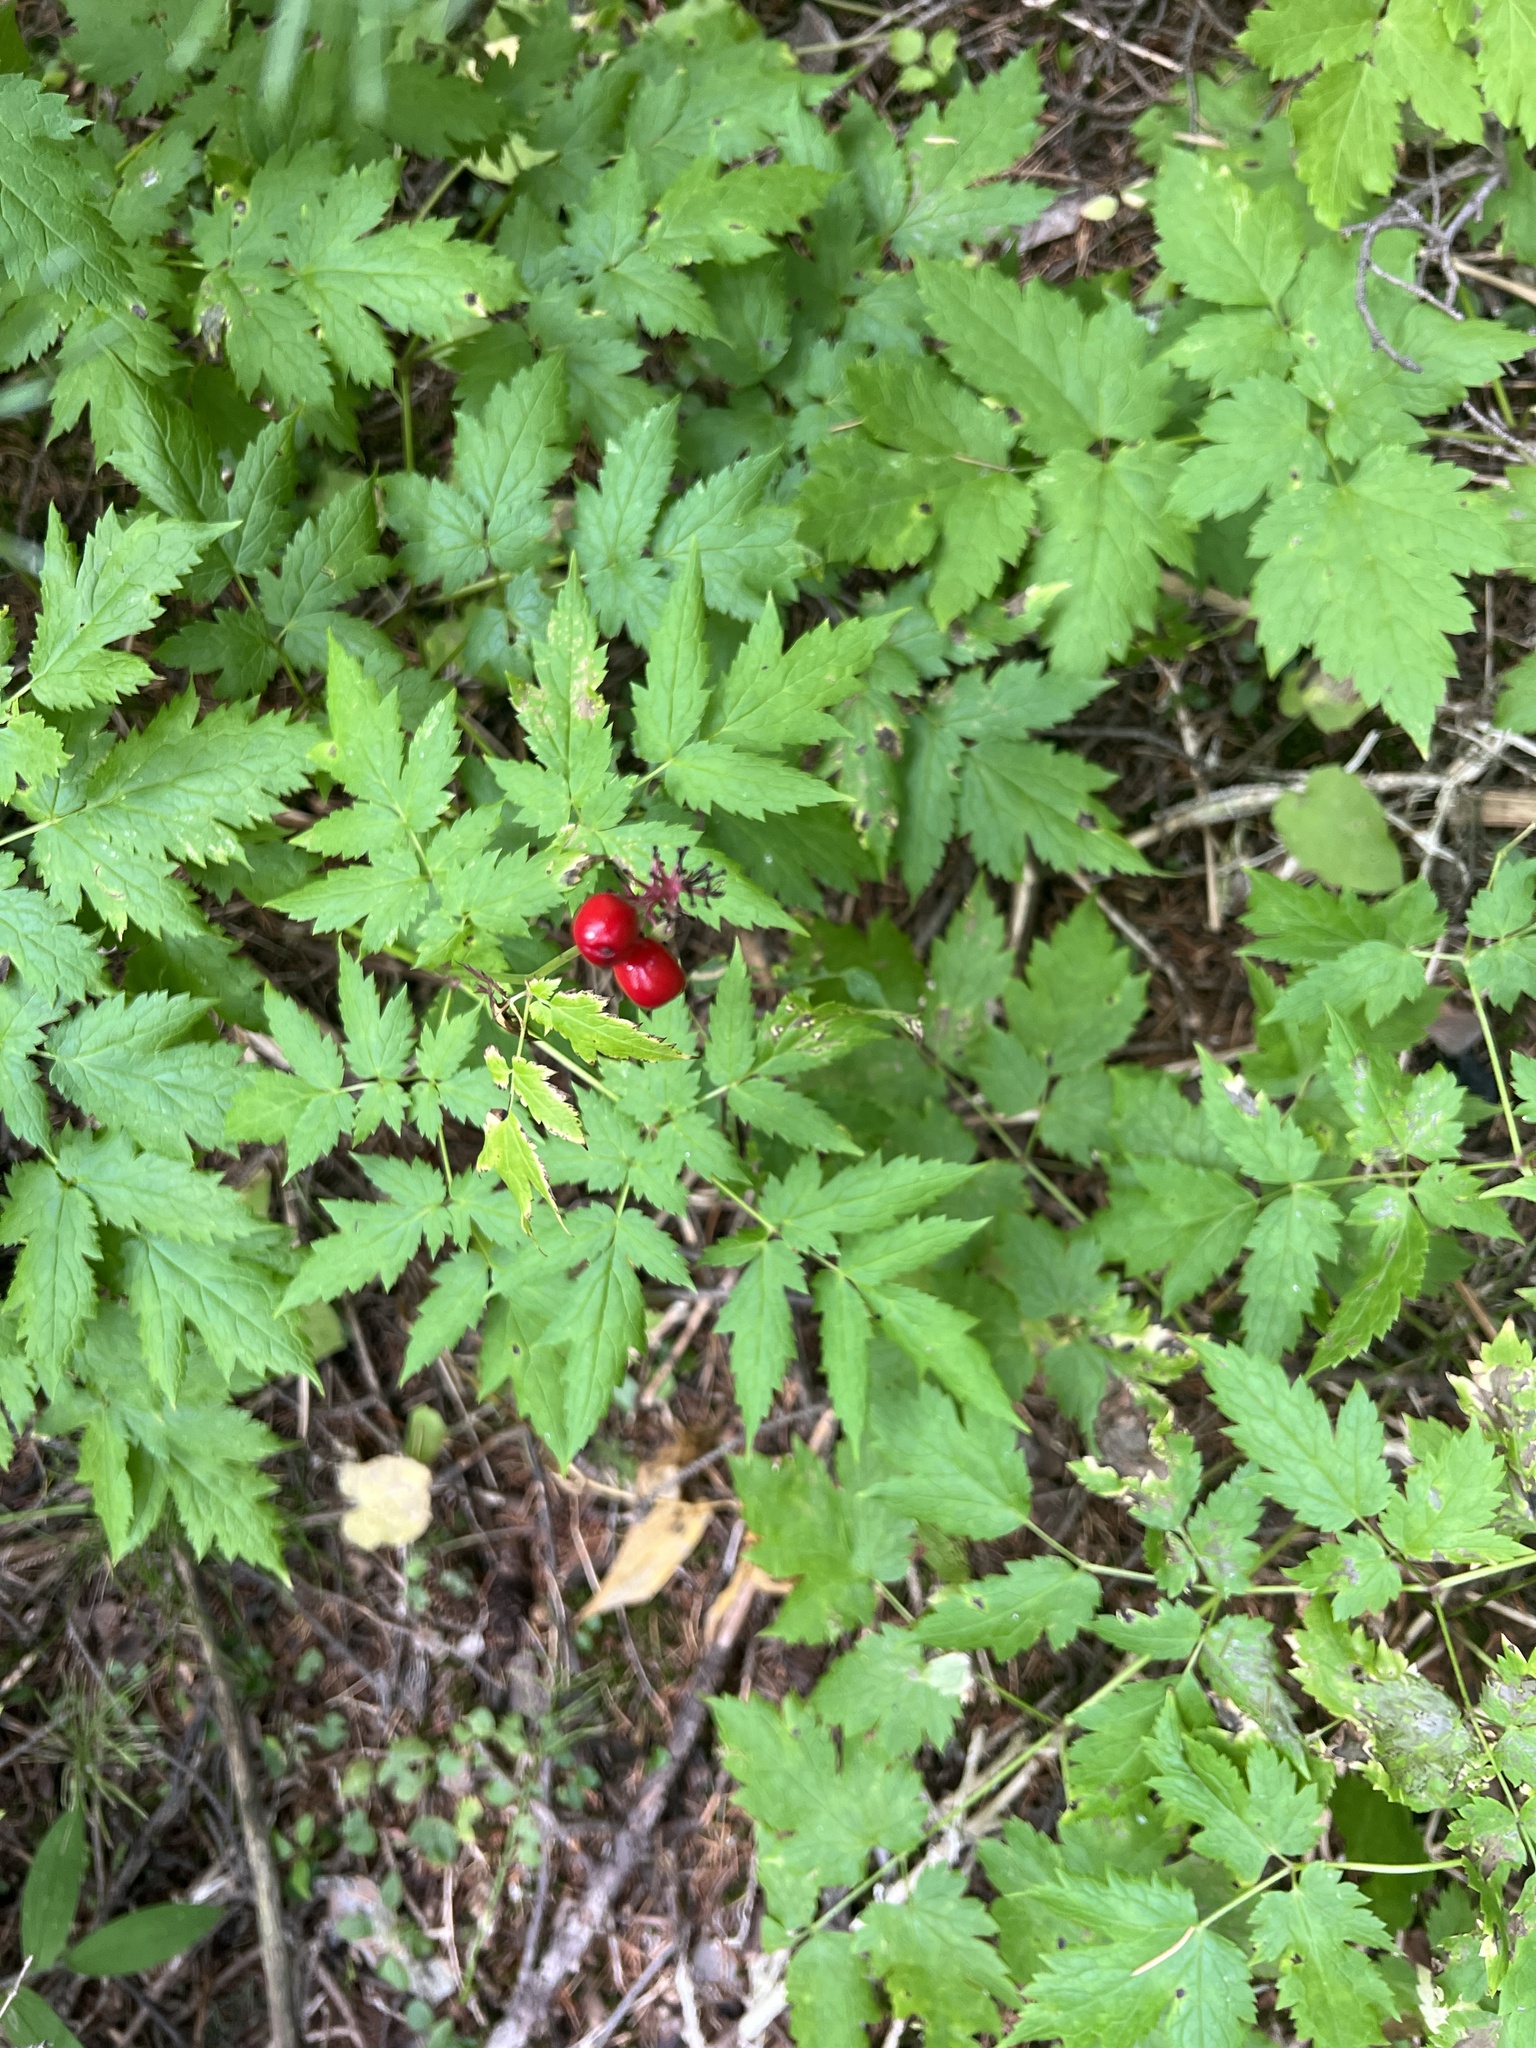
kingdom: Plantae
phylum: Tracheophyta
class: Magnoliopsida
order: Ranunculales
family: Ranunculaceae
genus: Actaea
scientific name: Actaea rubra
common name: Red baneberry
